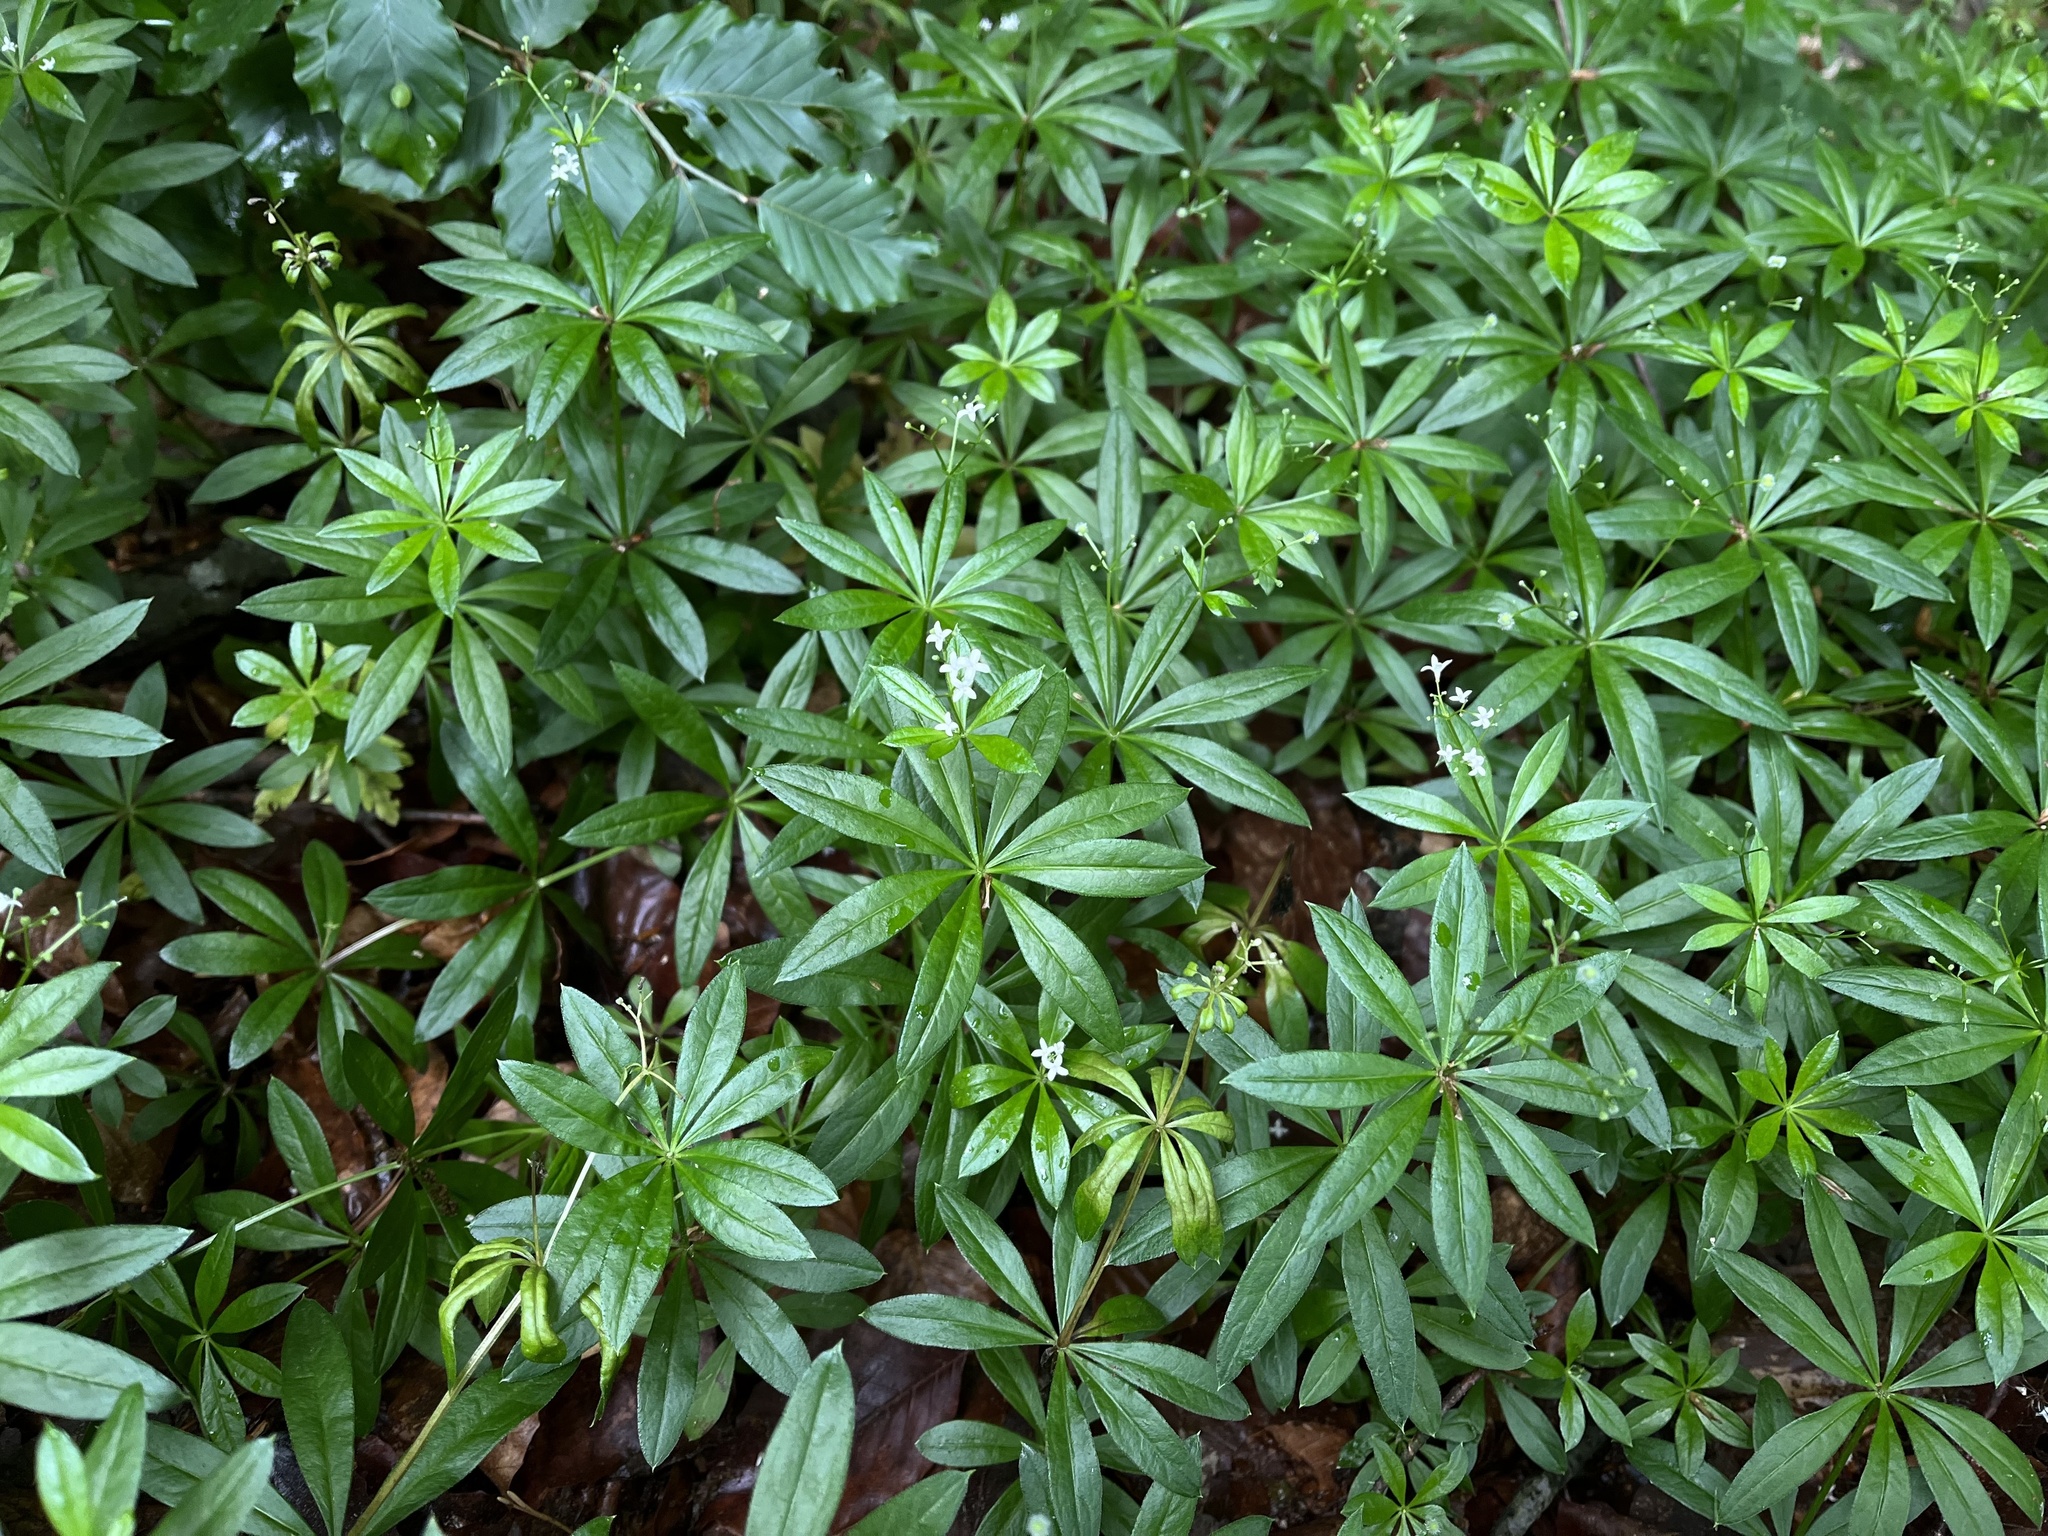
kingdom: Plantae
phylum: Tracheophyta
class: Magnoliopsida
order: Gentianales
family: Rubiaceae
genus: Galium
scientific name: Galium odoratum
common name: Sweet woodruff
